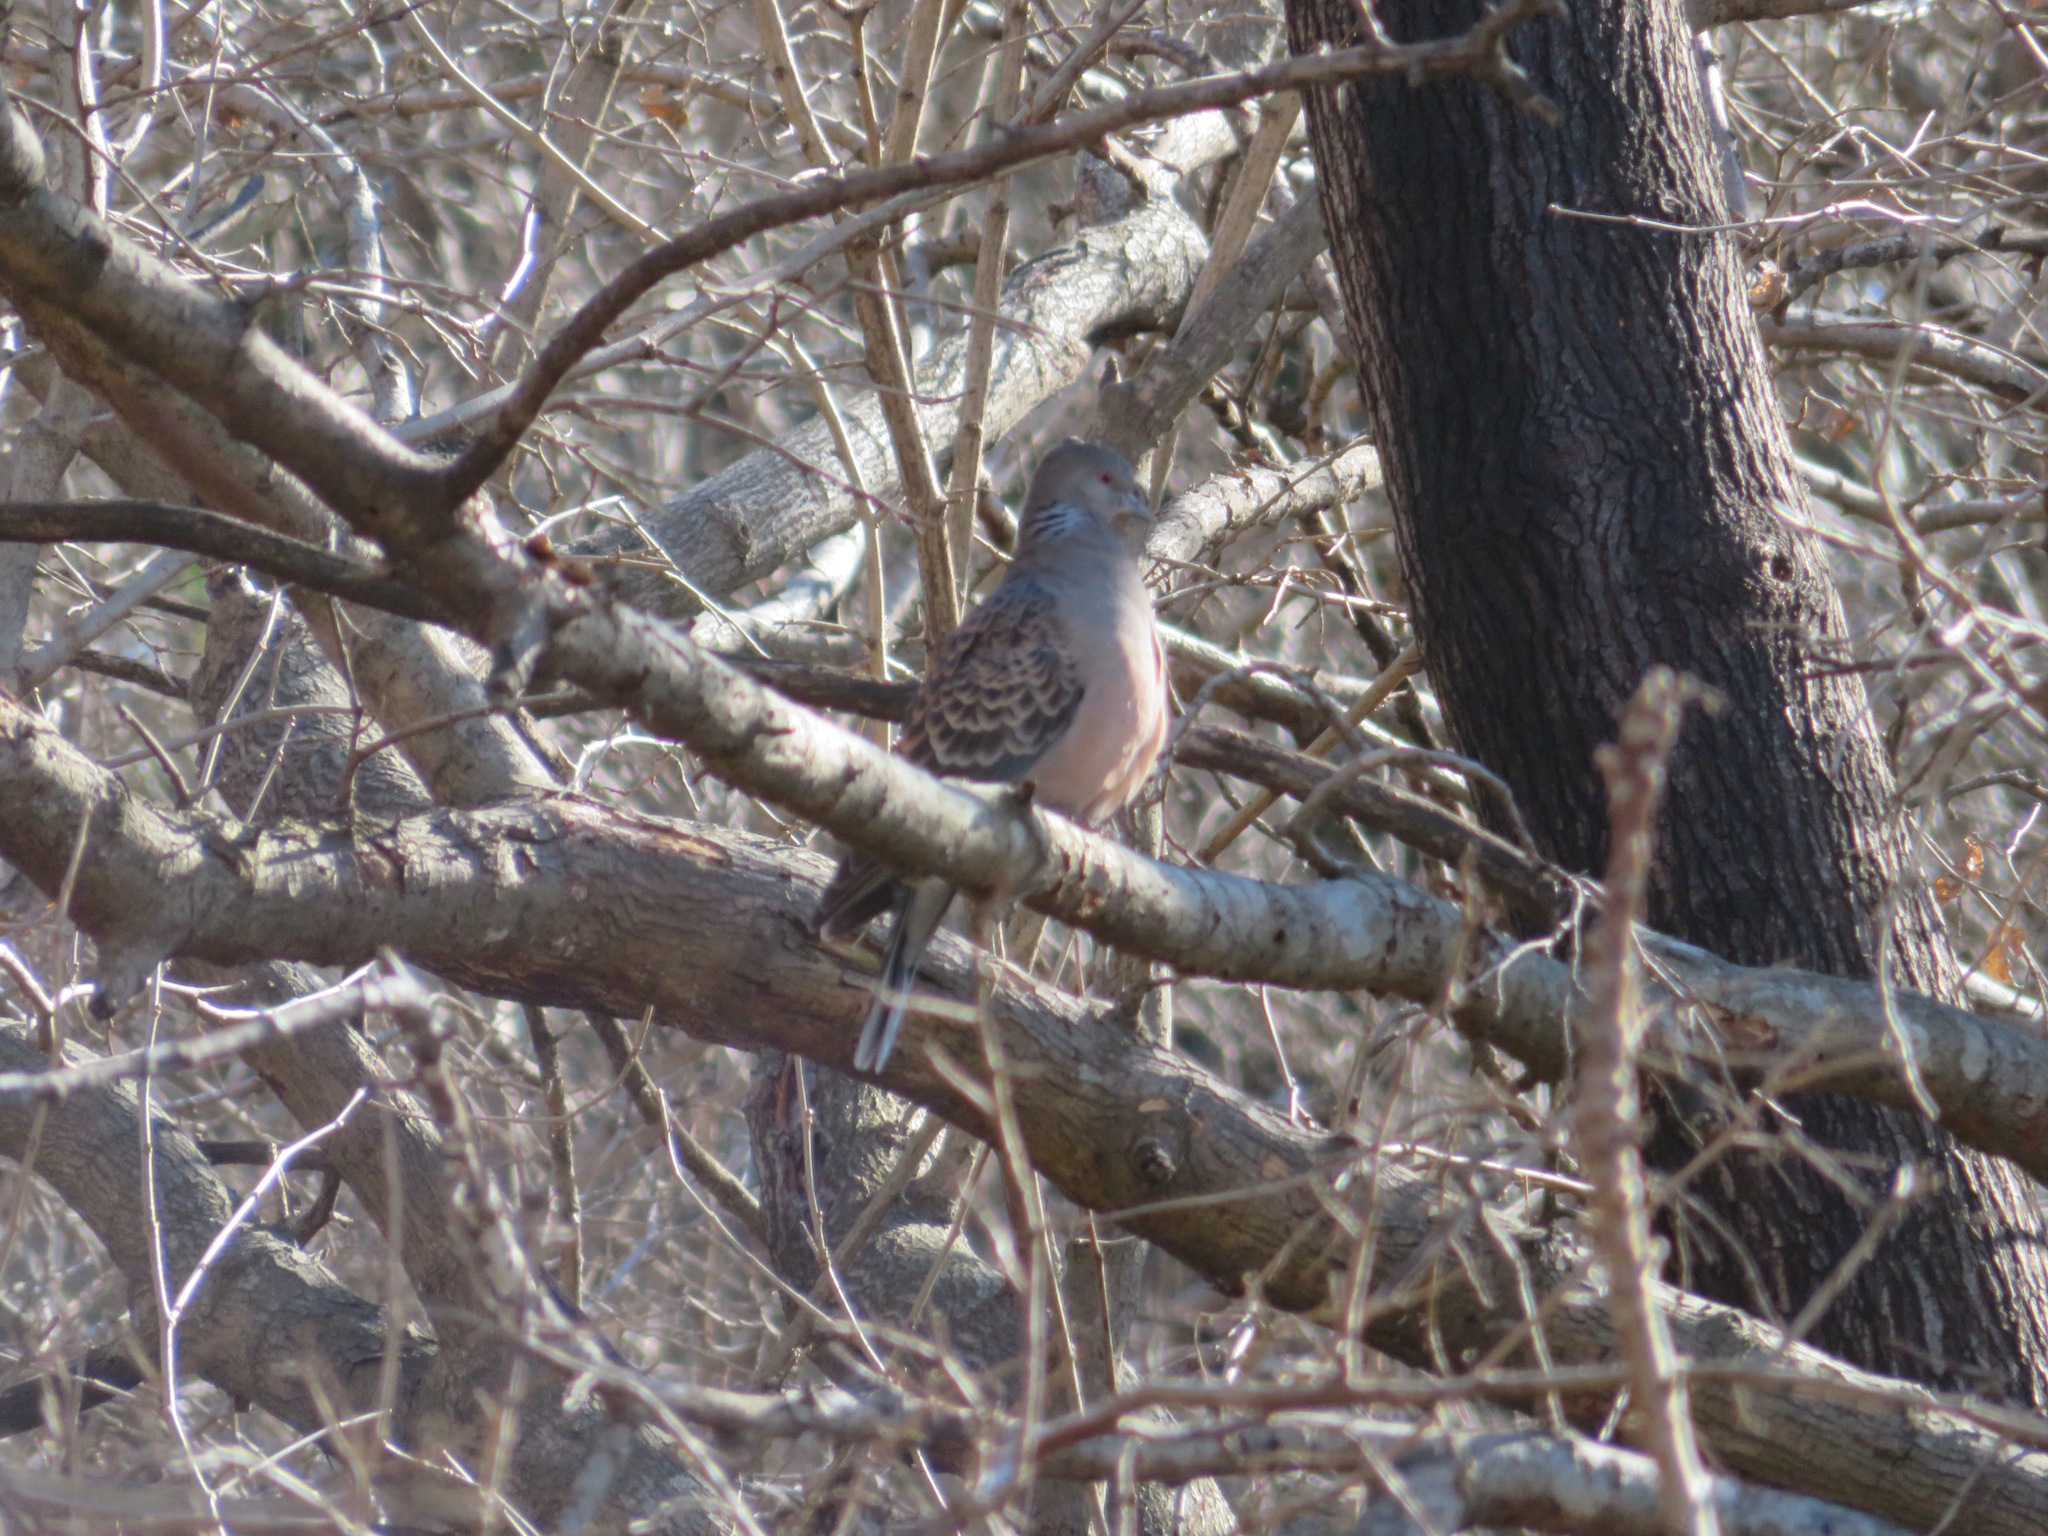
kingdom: Animalia
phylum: Chordata
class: Aves
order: Columbiformes
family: Columbidae
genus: Streptopelia
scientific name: Streptopelia orientalis
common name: Oriental turtle dove
